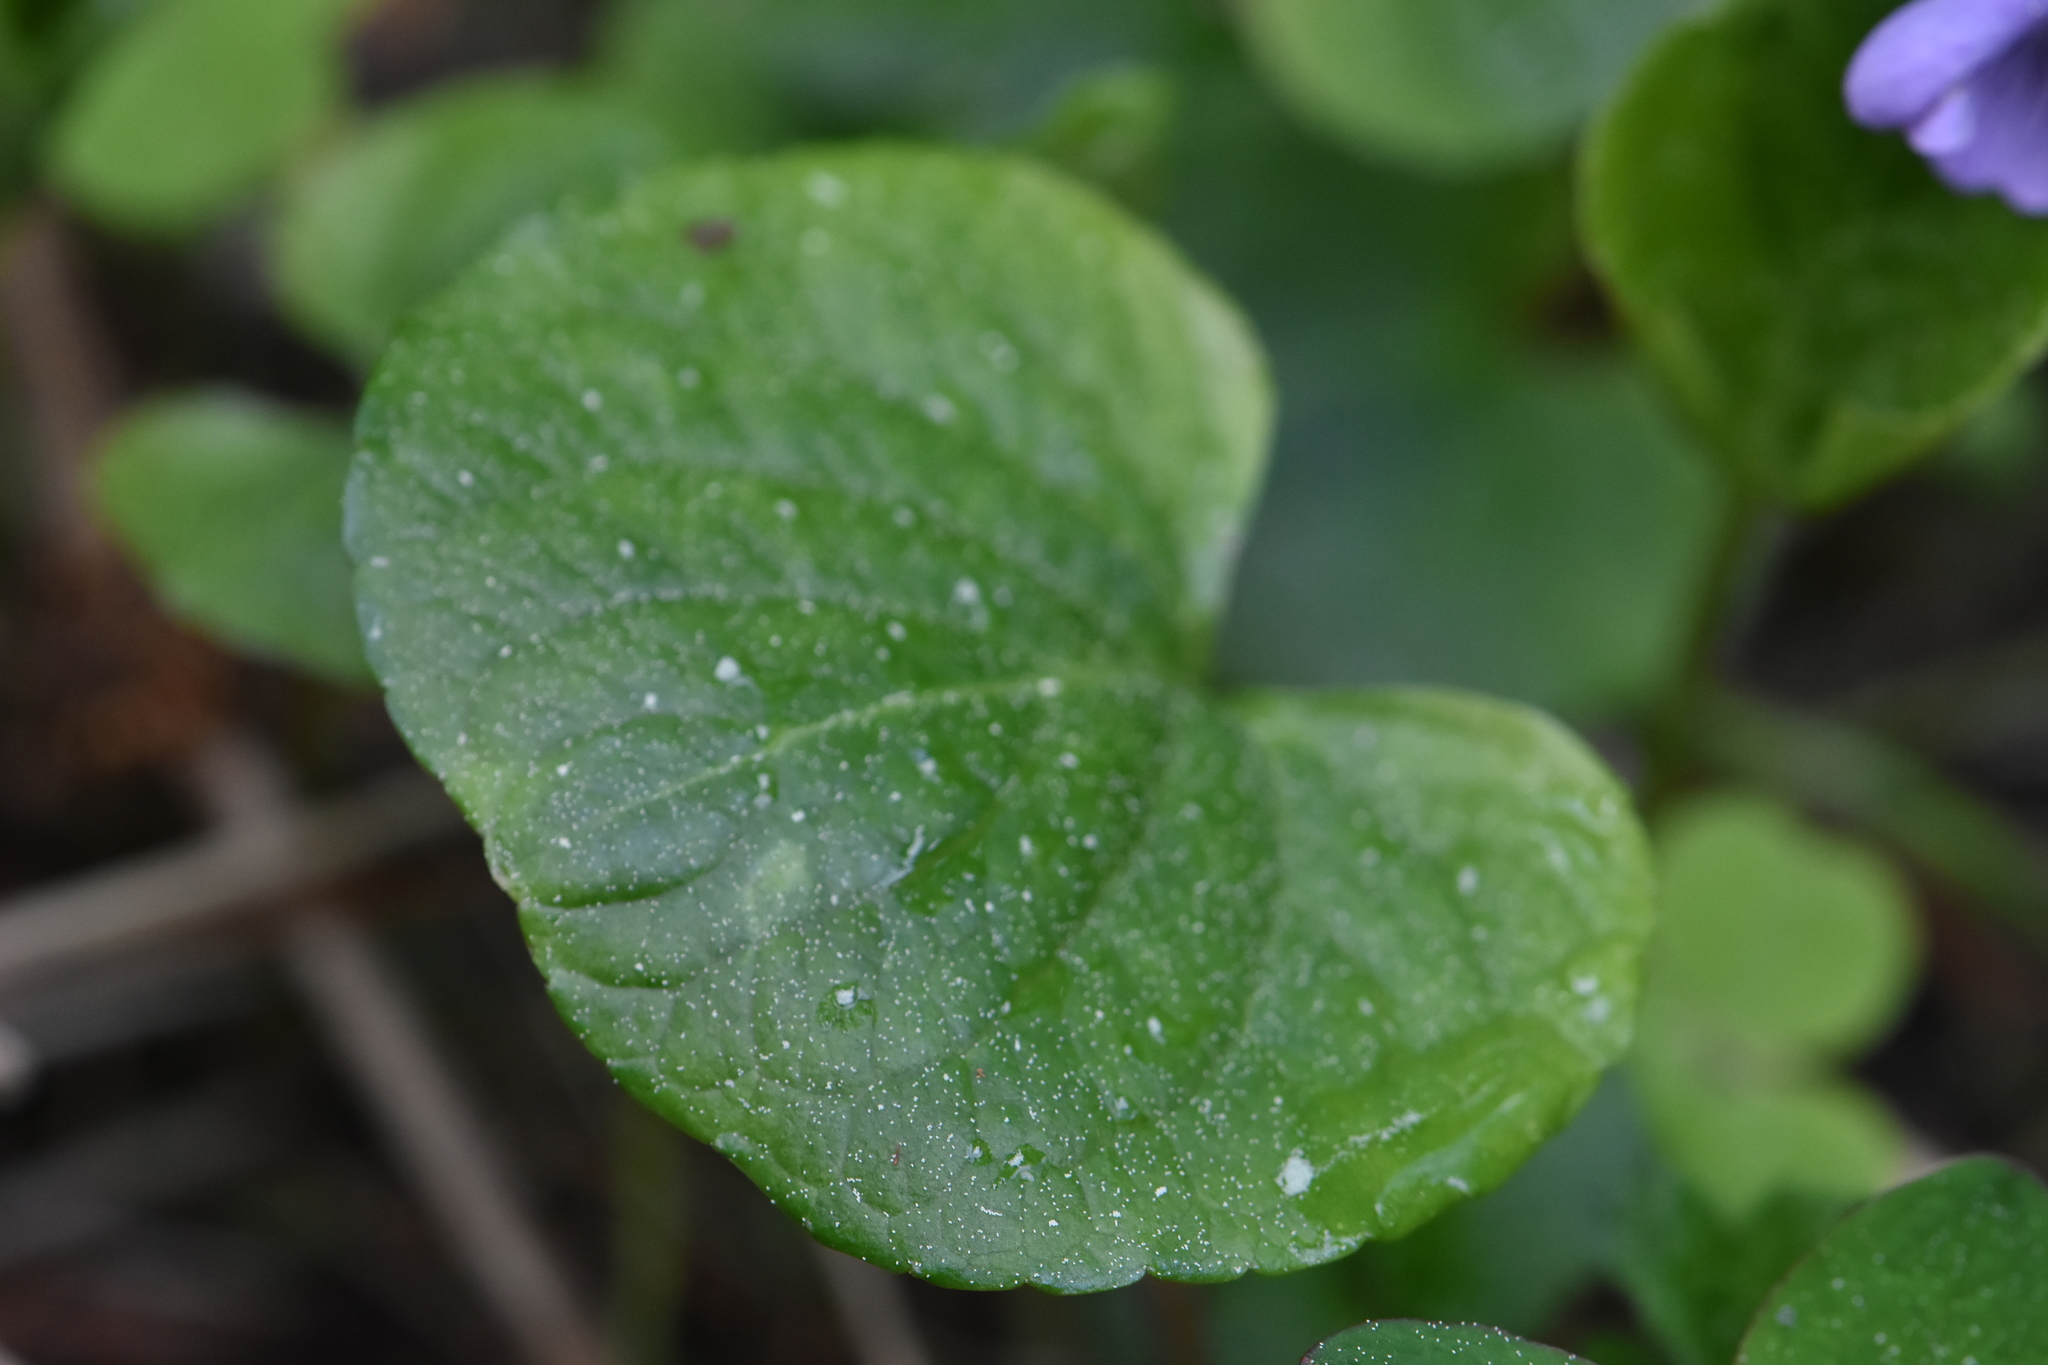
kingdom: Plantae
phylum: Tracheophyta
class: Magnoliopsida
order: Malpighiales
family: Violaceae
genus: Viola
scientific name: Viola palustris
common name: Marsh violet
